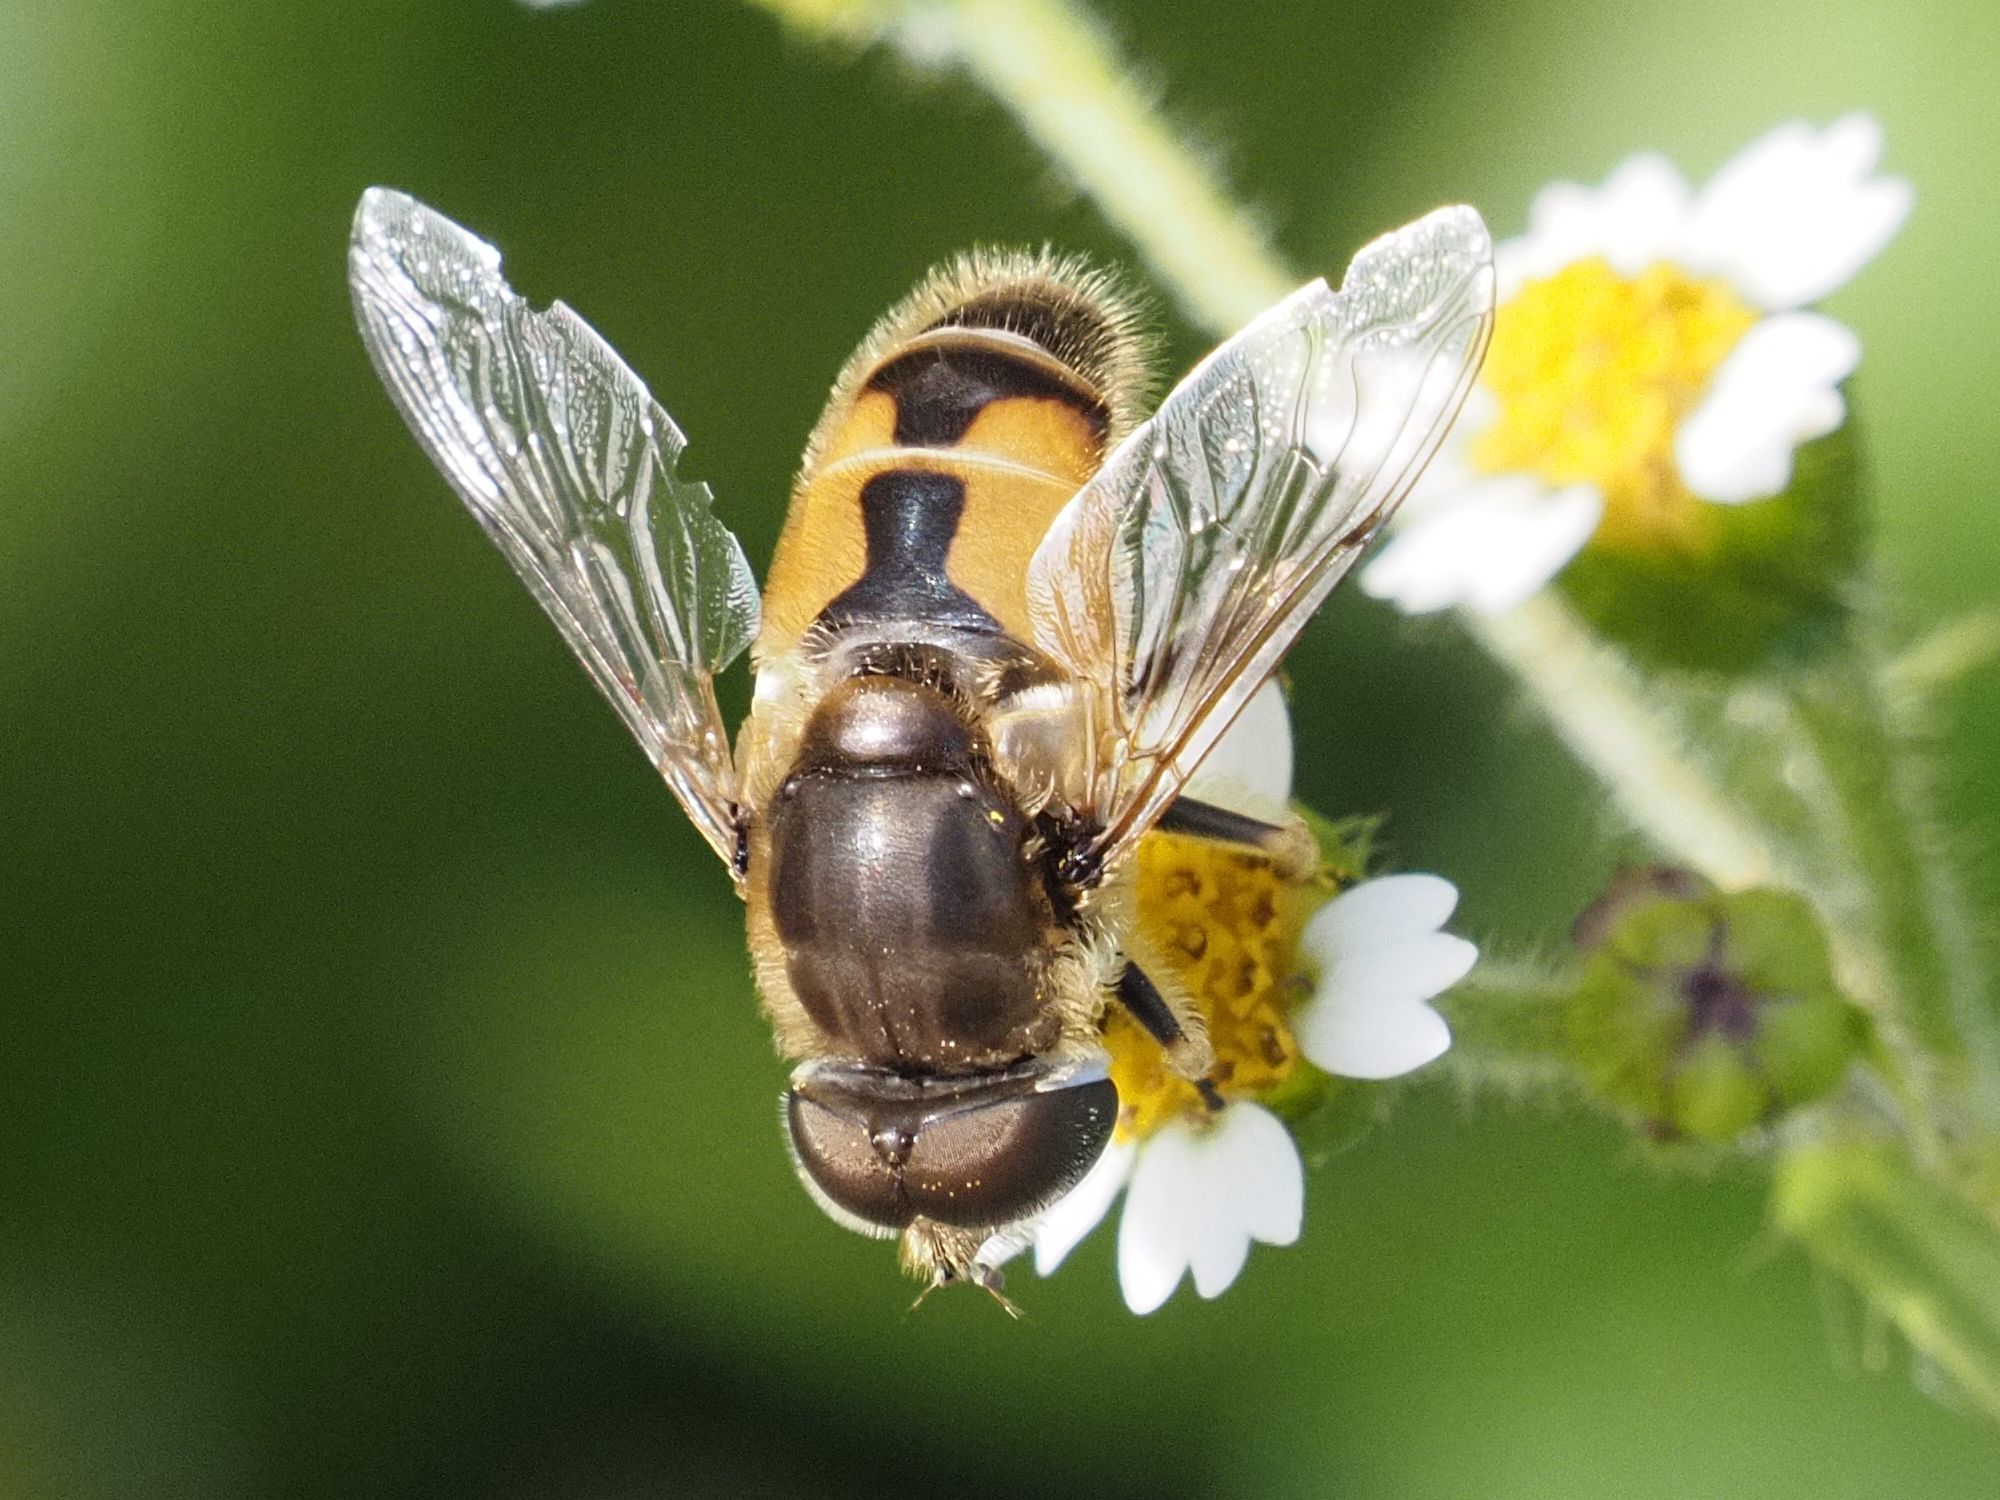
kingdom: Animalia
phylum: Arthropoda
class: Insecta
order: Diptera
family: Syrphidae
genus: Eristalis
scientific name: Eristalis arbustorum
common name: Hover fly
